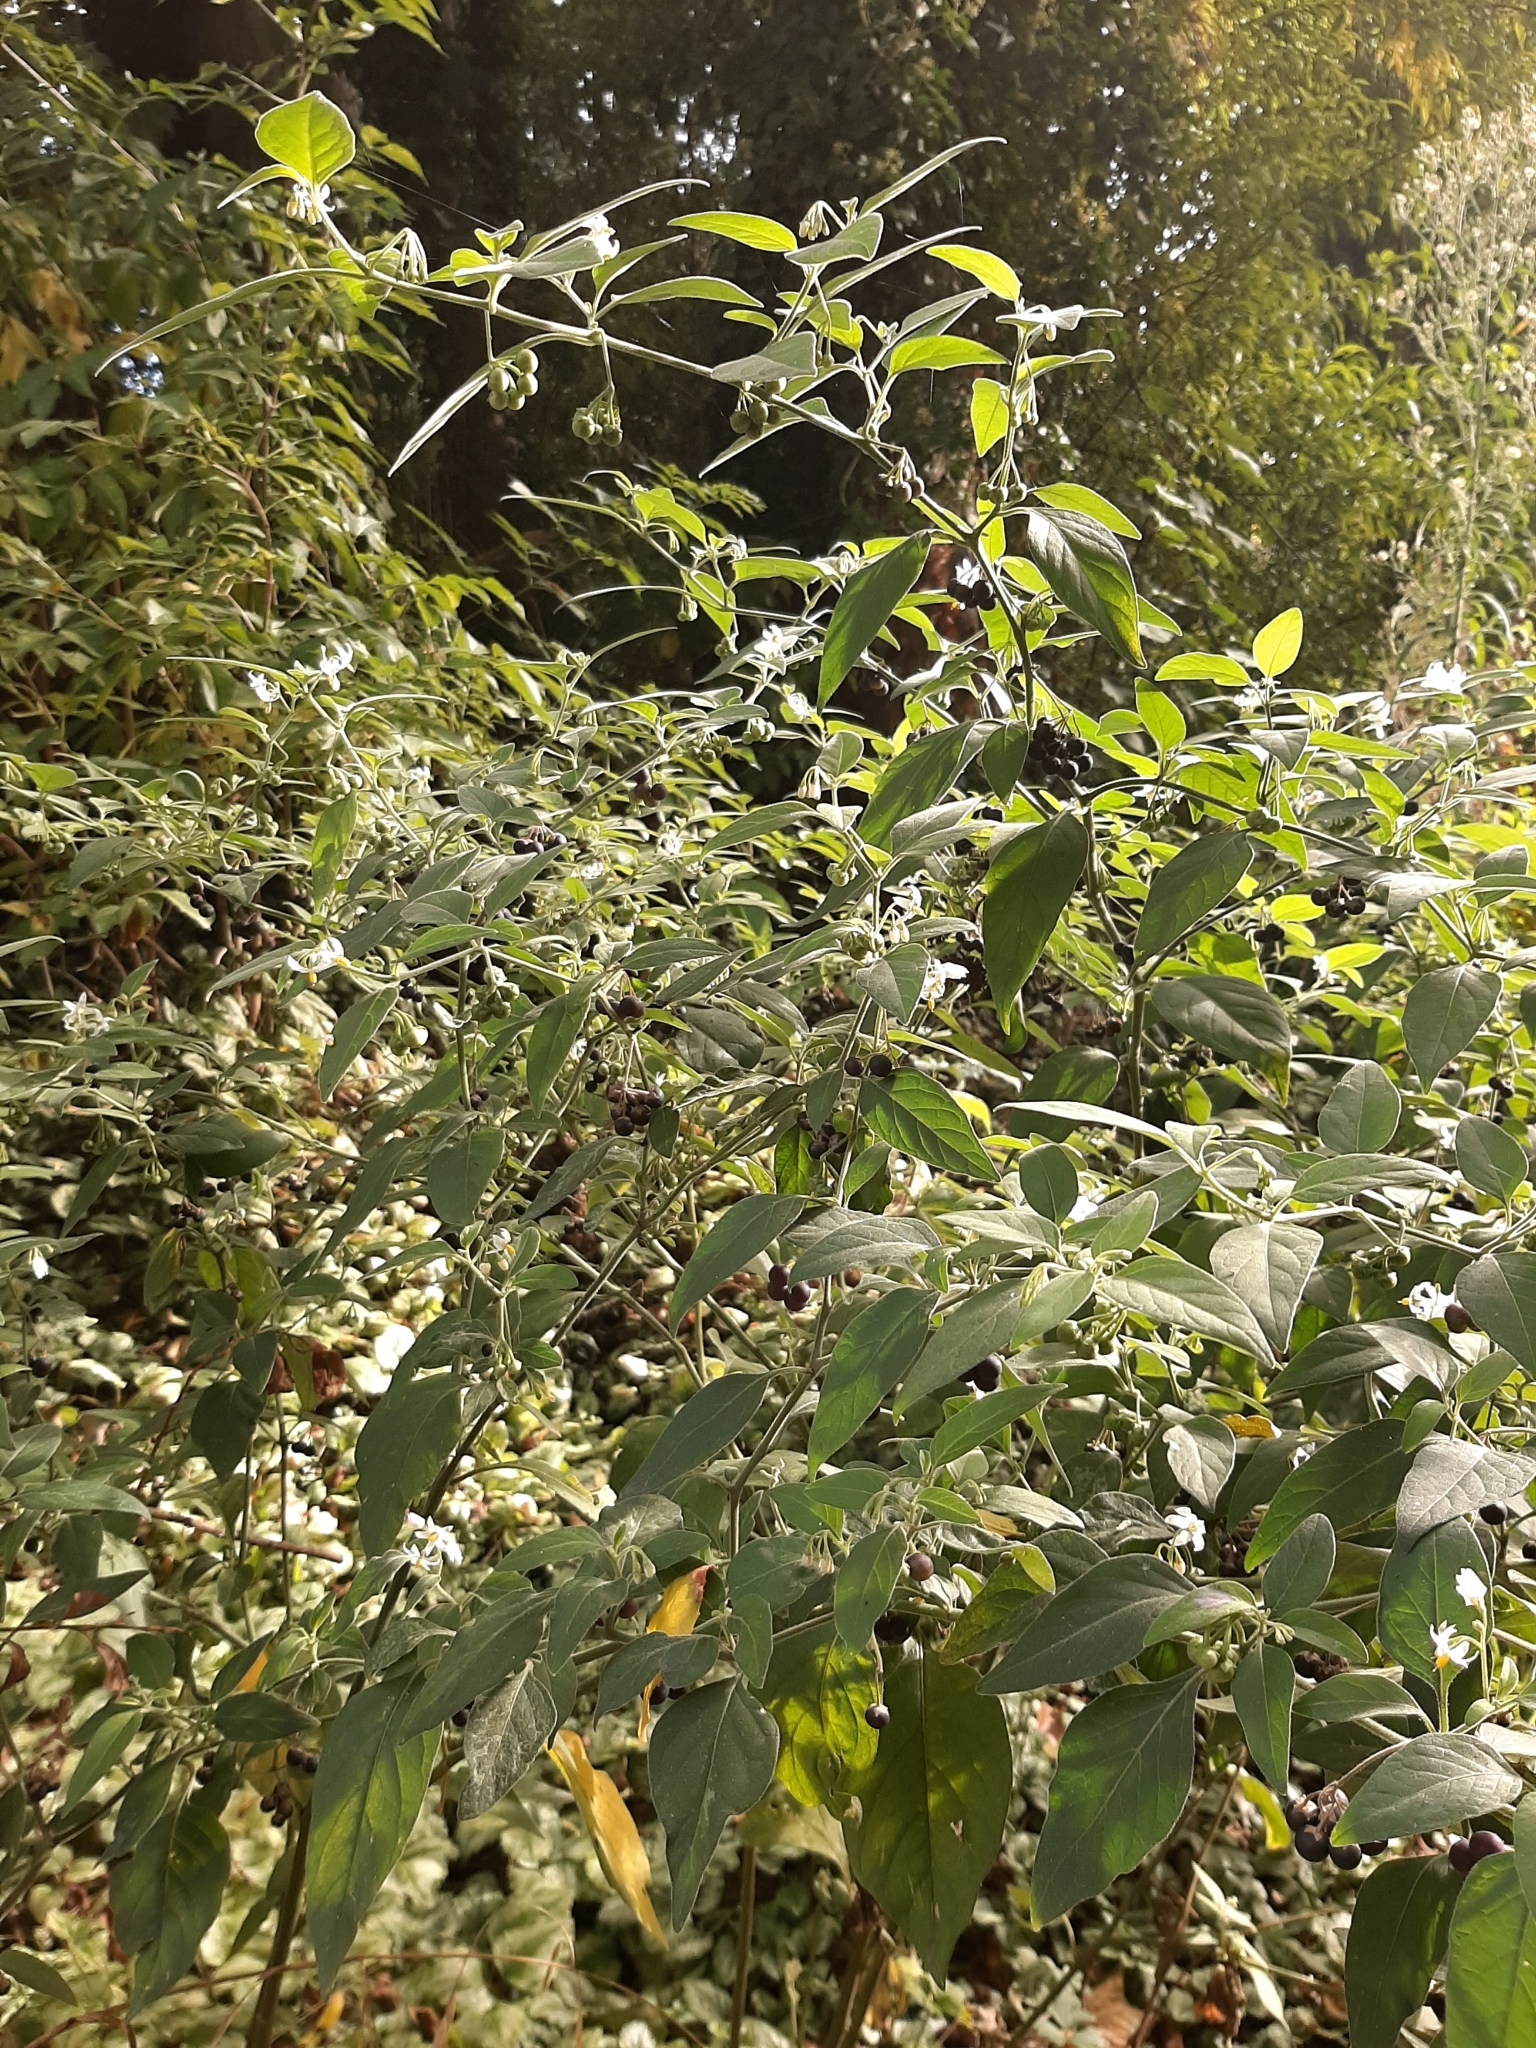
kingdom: Plantae
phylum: Tracheophyta
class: Magnoliopsida
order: Solanales
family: Solanaceae
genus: Solanum
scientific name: Solanum chenopodioides
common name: Tall nightshade
